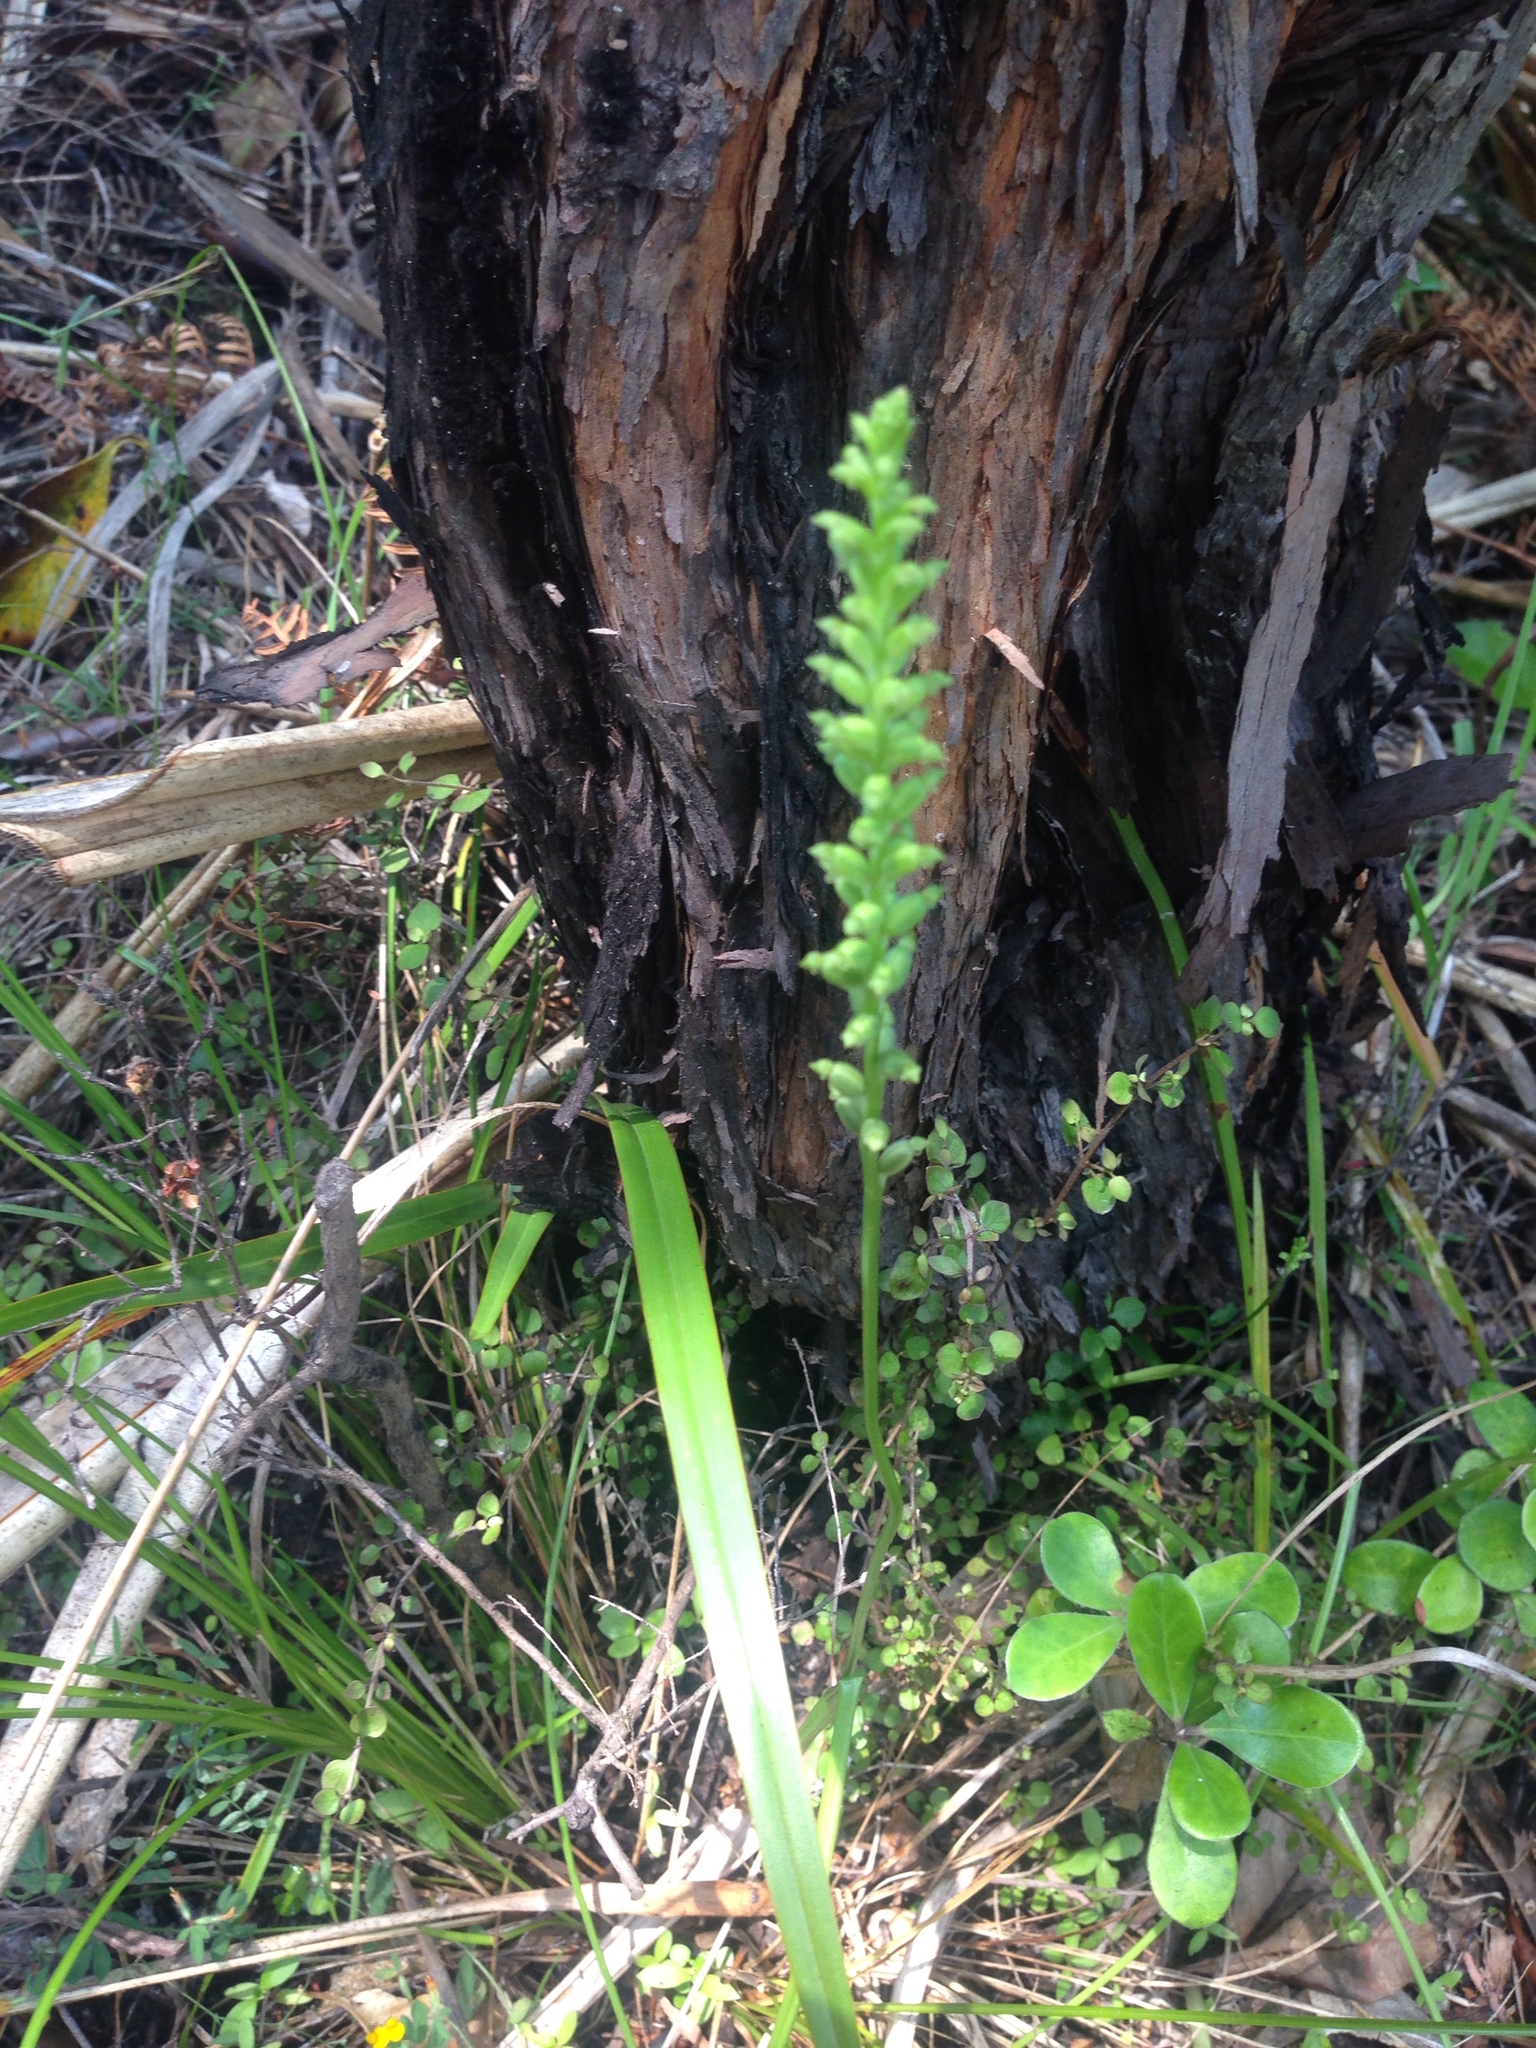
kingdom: Plantae
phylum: Tracheophyta
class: Liliopsida
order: Asparagales
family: Orchidaceae
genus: Microtis
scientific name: Microtis unifolia
